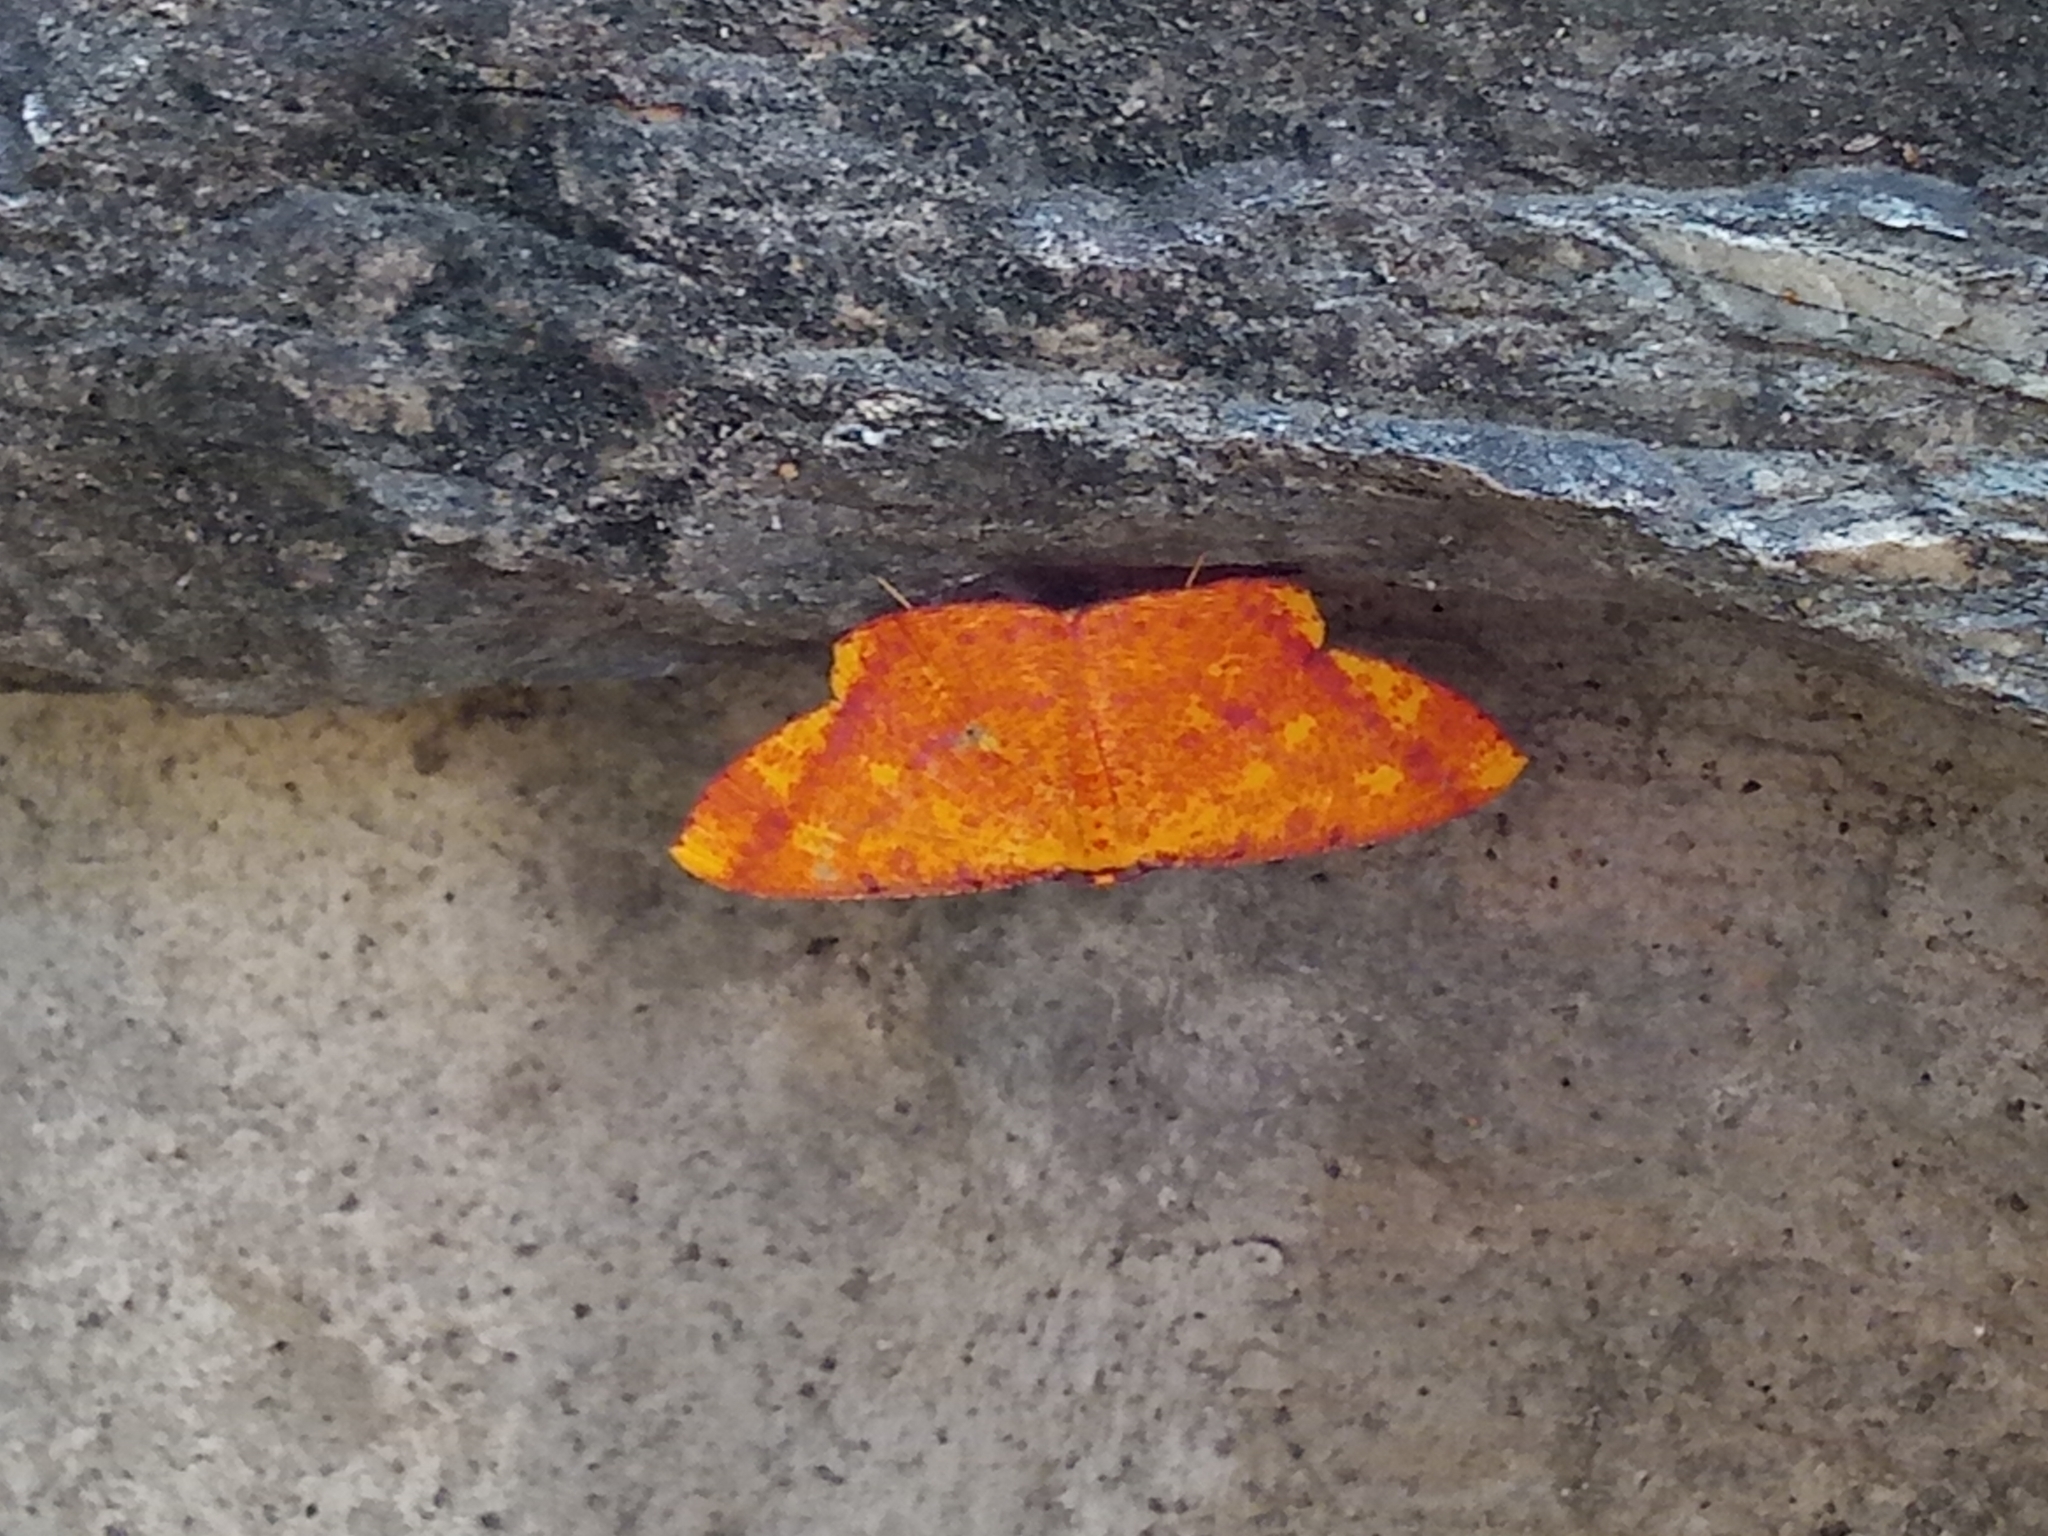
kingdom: Animalia
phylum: Arthropoda
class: Insecta
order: Lepidoptera
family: Geometridae
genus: Eumelea
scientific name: Eumelea ludovicata
